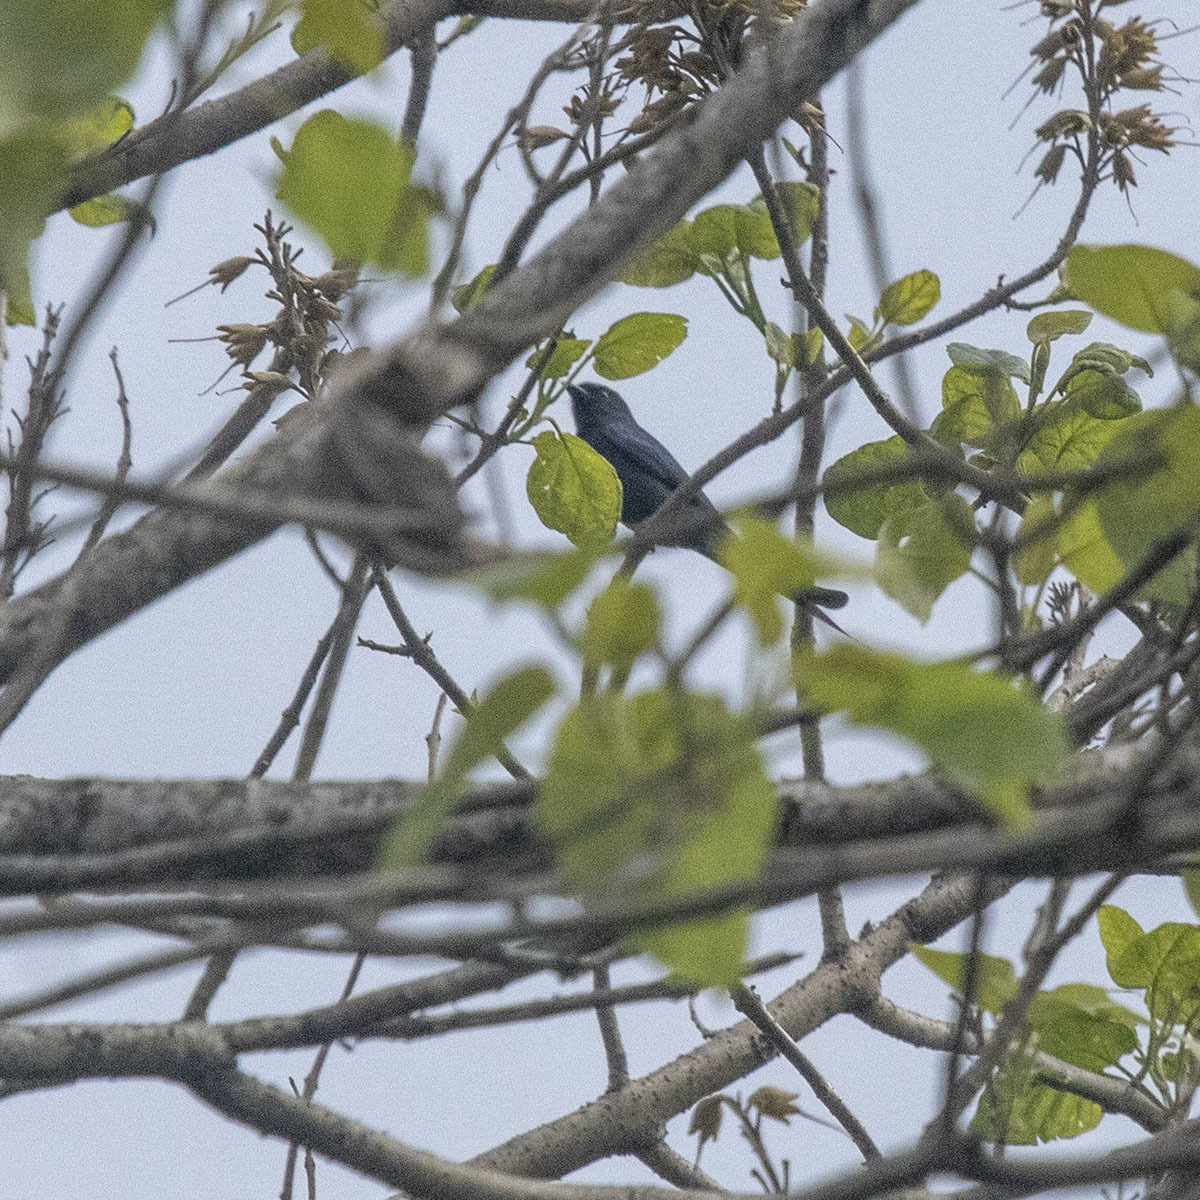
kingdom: Animalia
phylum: Chordata
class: Aves
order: Passeriformes
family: Dicruridae
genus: Dicrurus
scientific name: Dicrurus leucophaeus
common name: Ashy drongo
